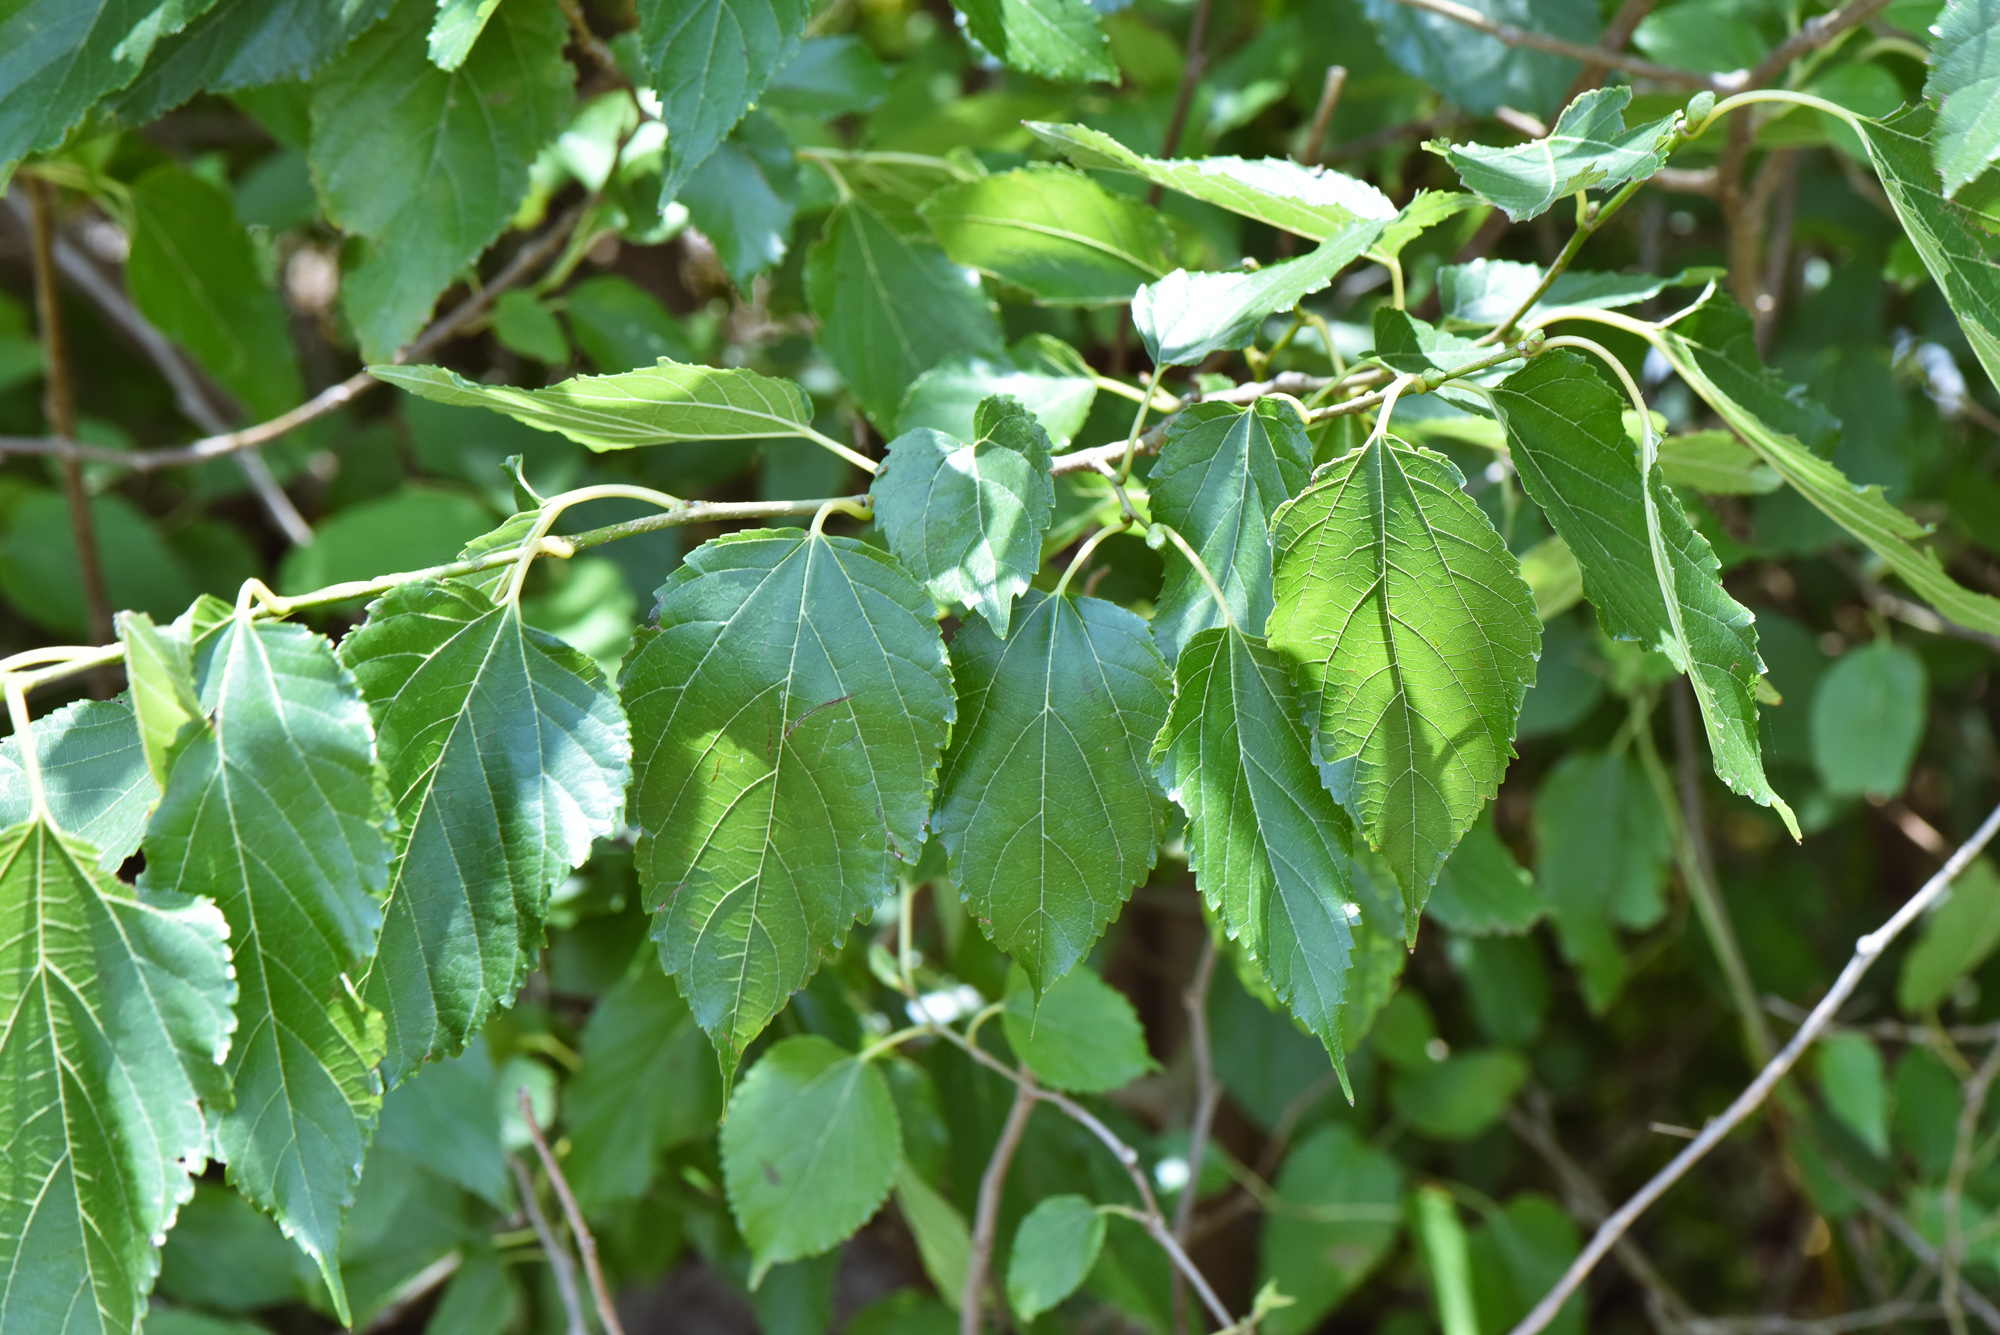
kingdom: Plantae
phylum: Tracheophyta
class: Magnoliopsida
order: Rosales
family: Moraceae
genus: Morus
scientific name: Morus indica
